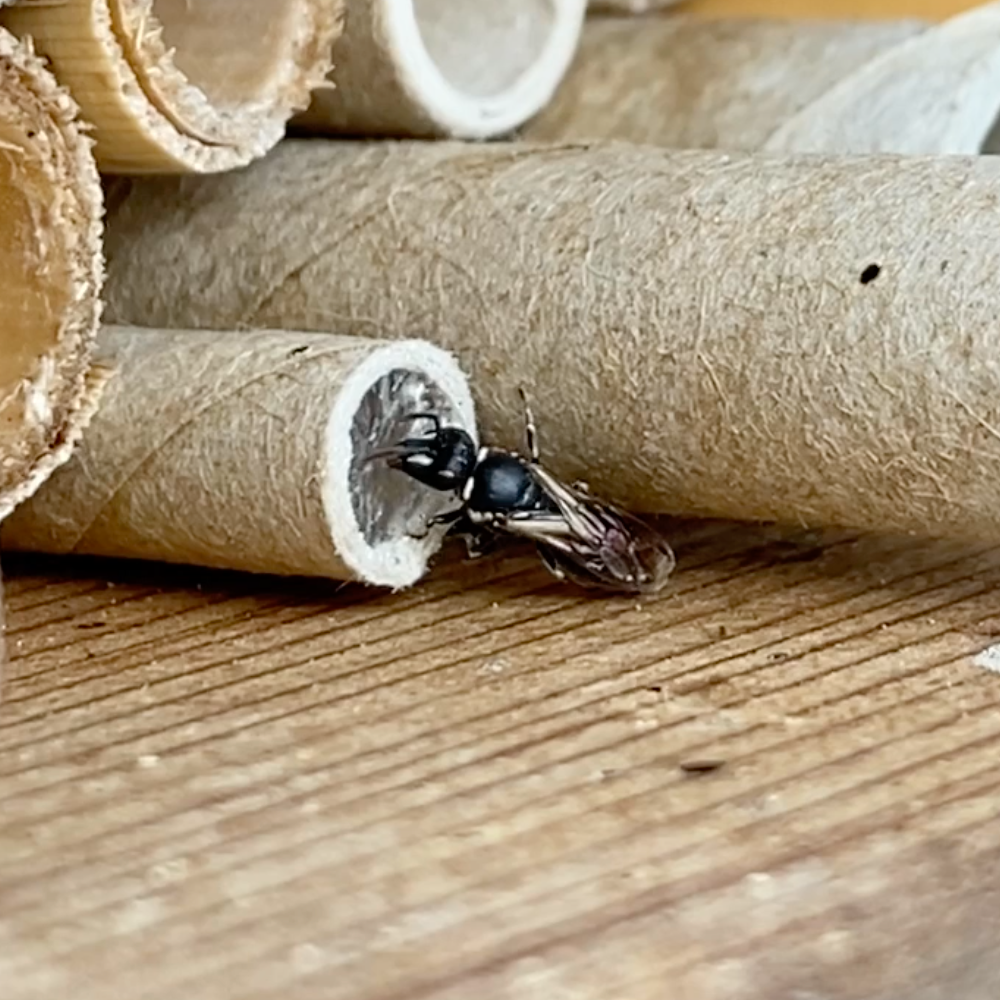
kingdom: Animalia
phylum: Arthropoda
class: Insecta
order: Hymenoptera
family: Colletidae
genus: Hylaeus
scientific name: Hylaeus
